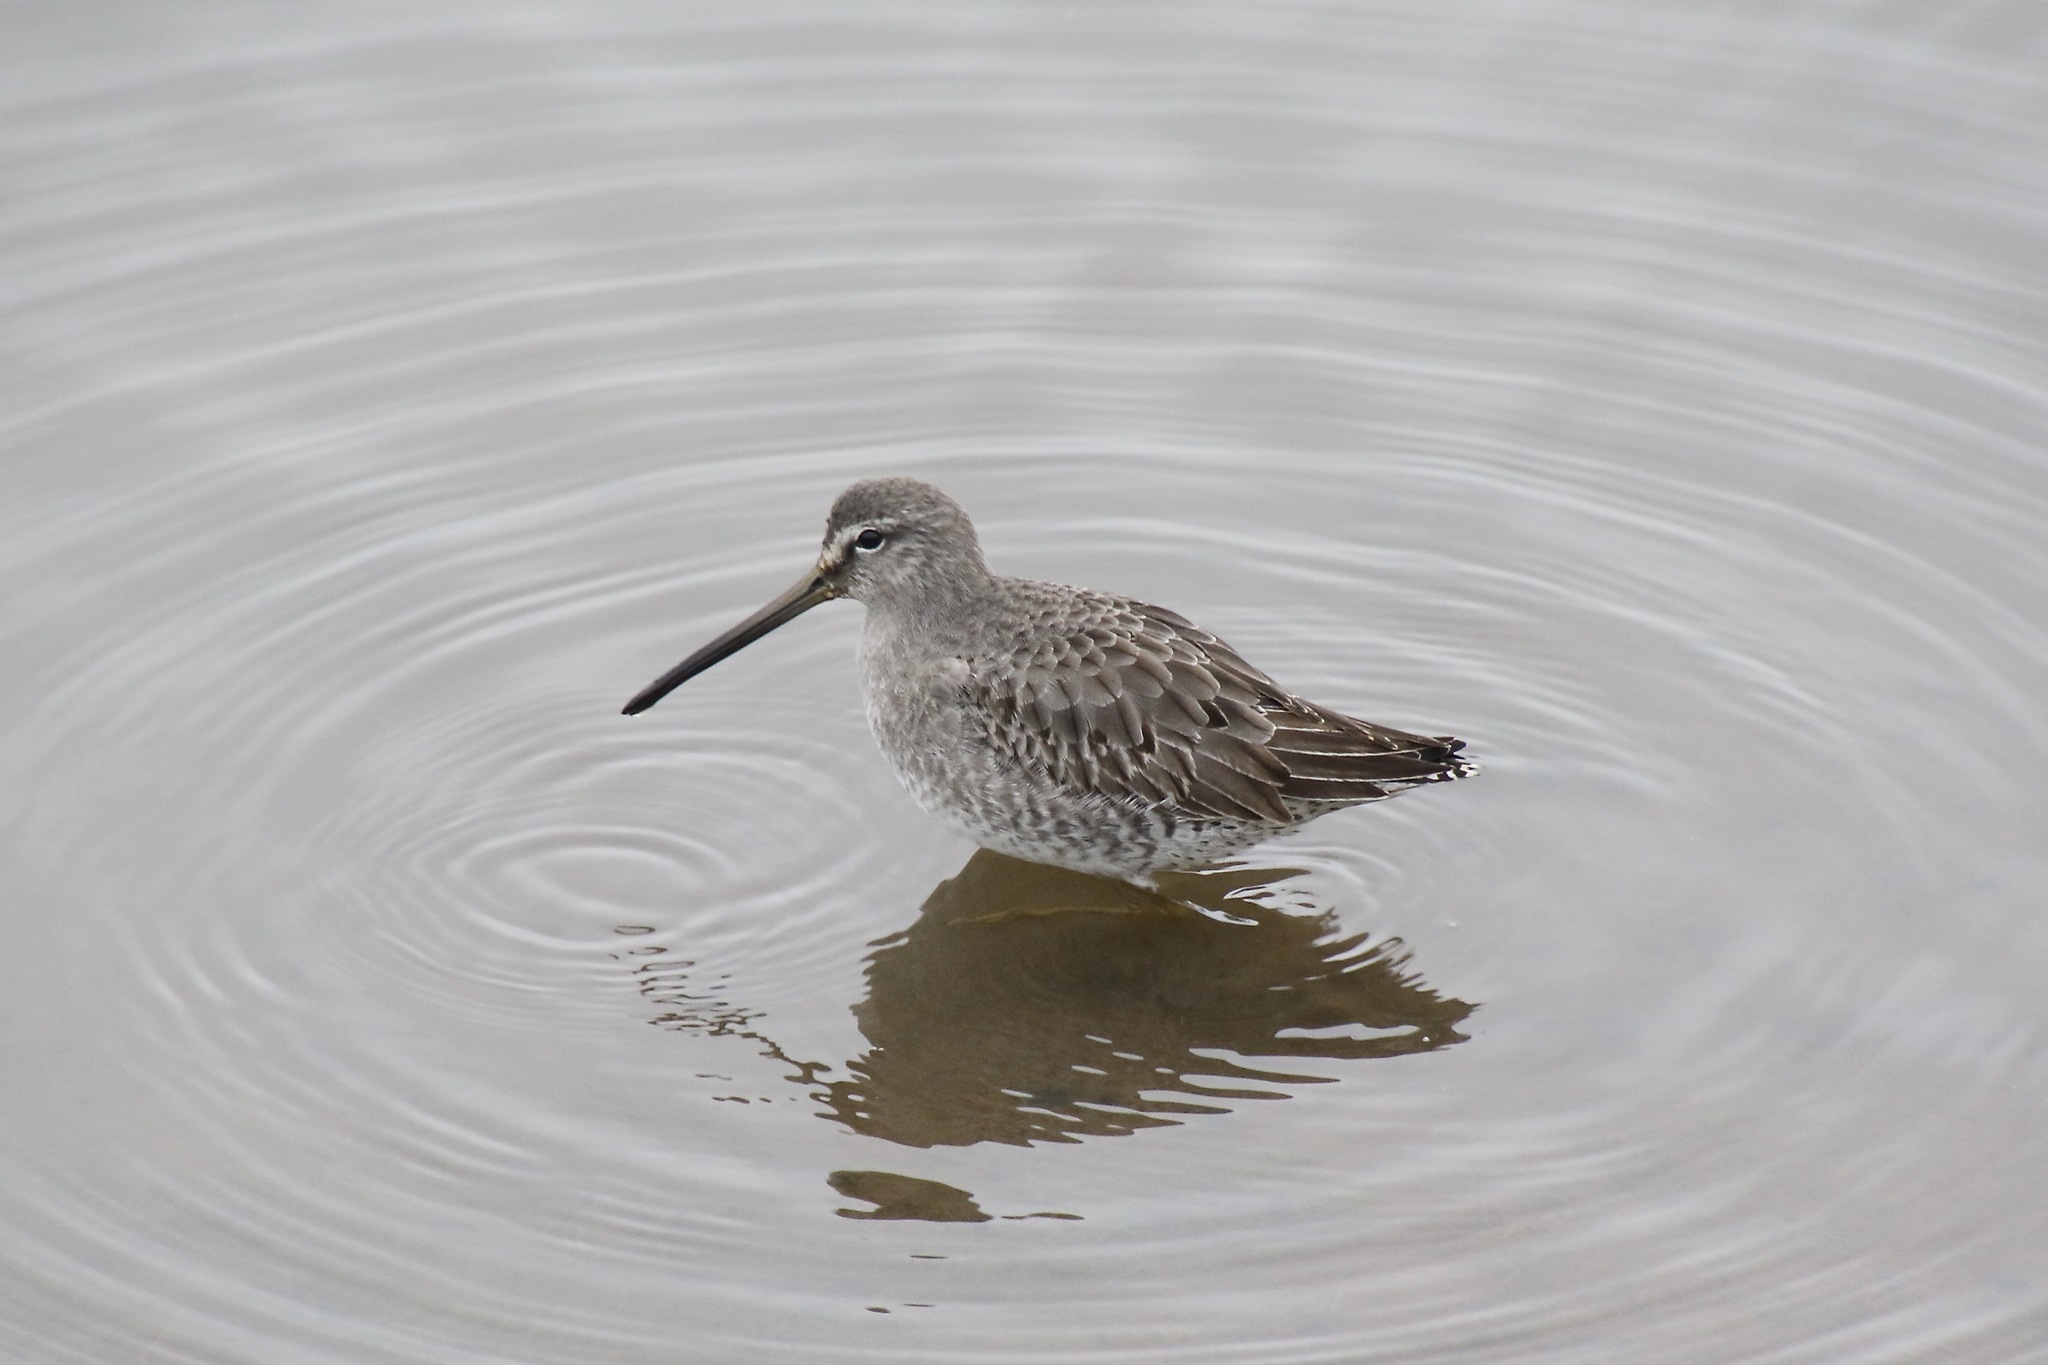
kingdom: Animalia
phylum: Chordata
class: Aves
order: Charadriiformes
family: Scolopacidae
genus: Limnodromus
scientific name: Limnodromus scolopaceus
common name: Long-billed dowitcher
